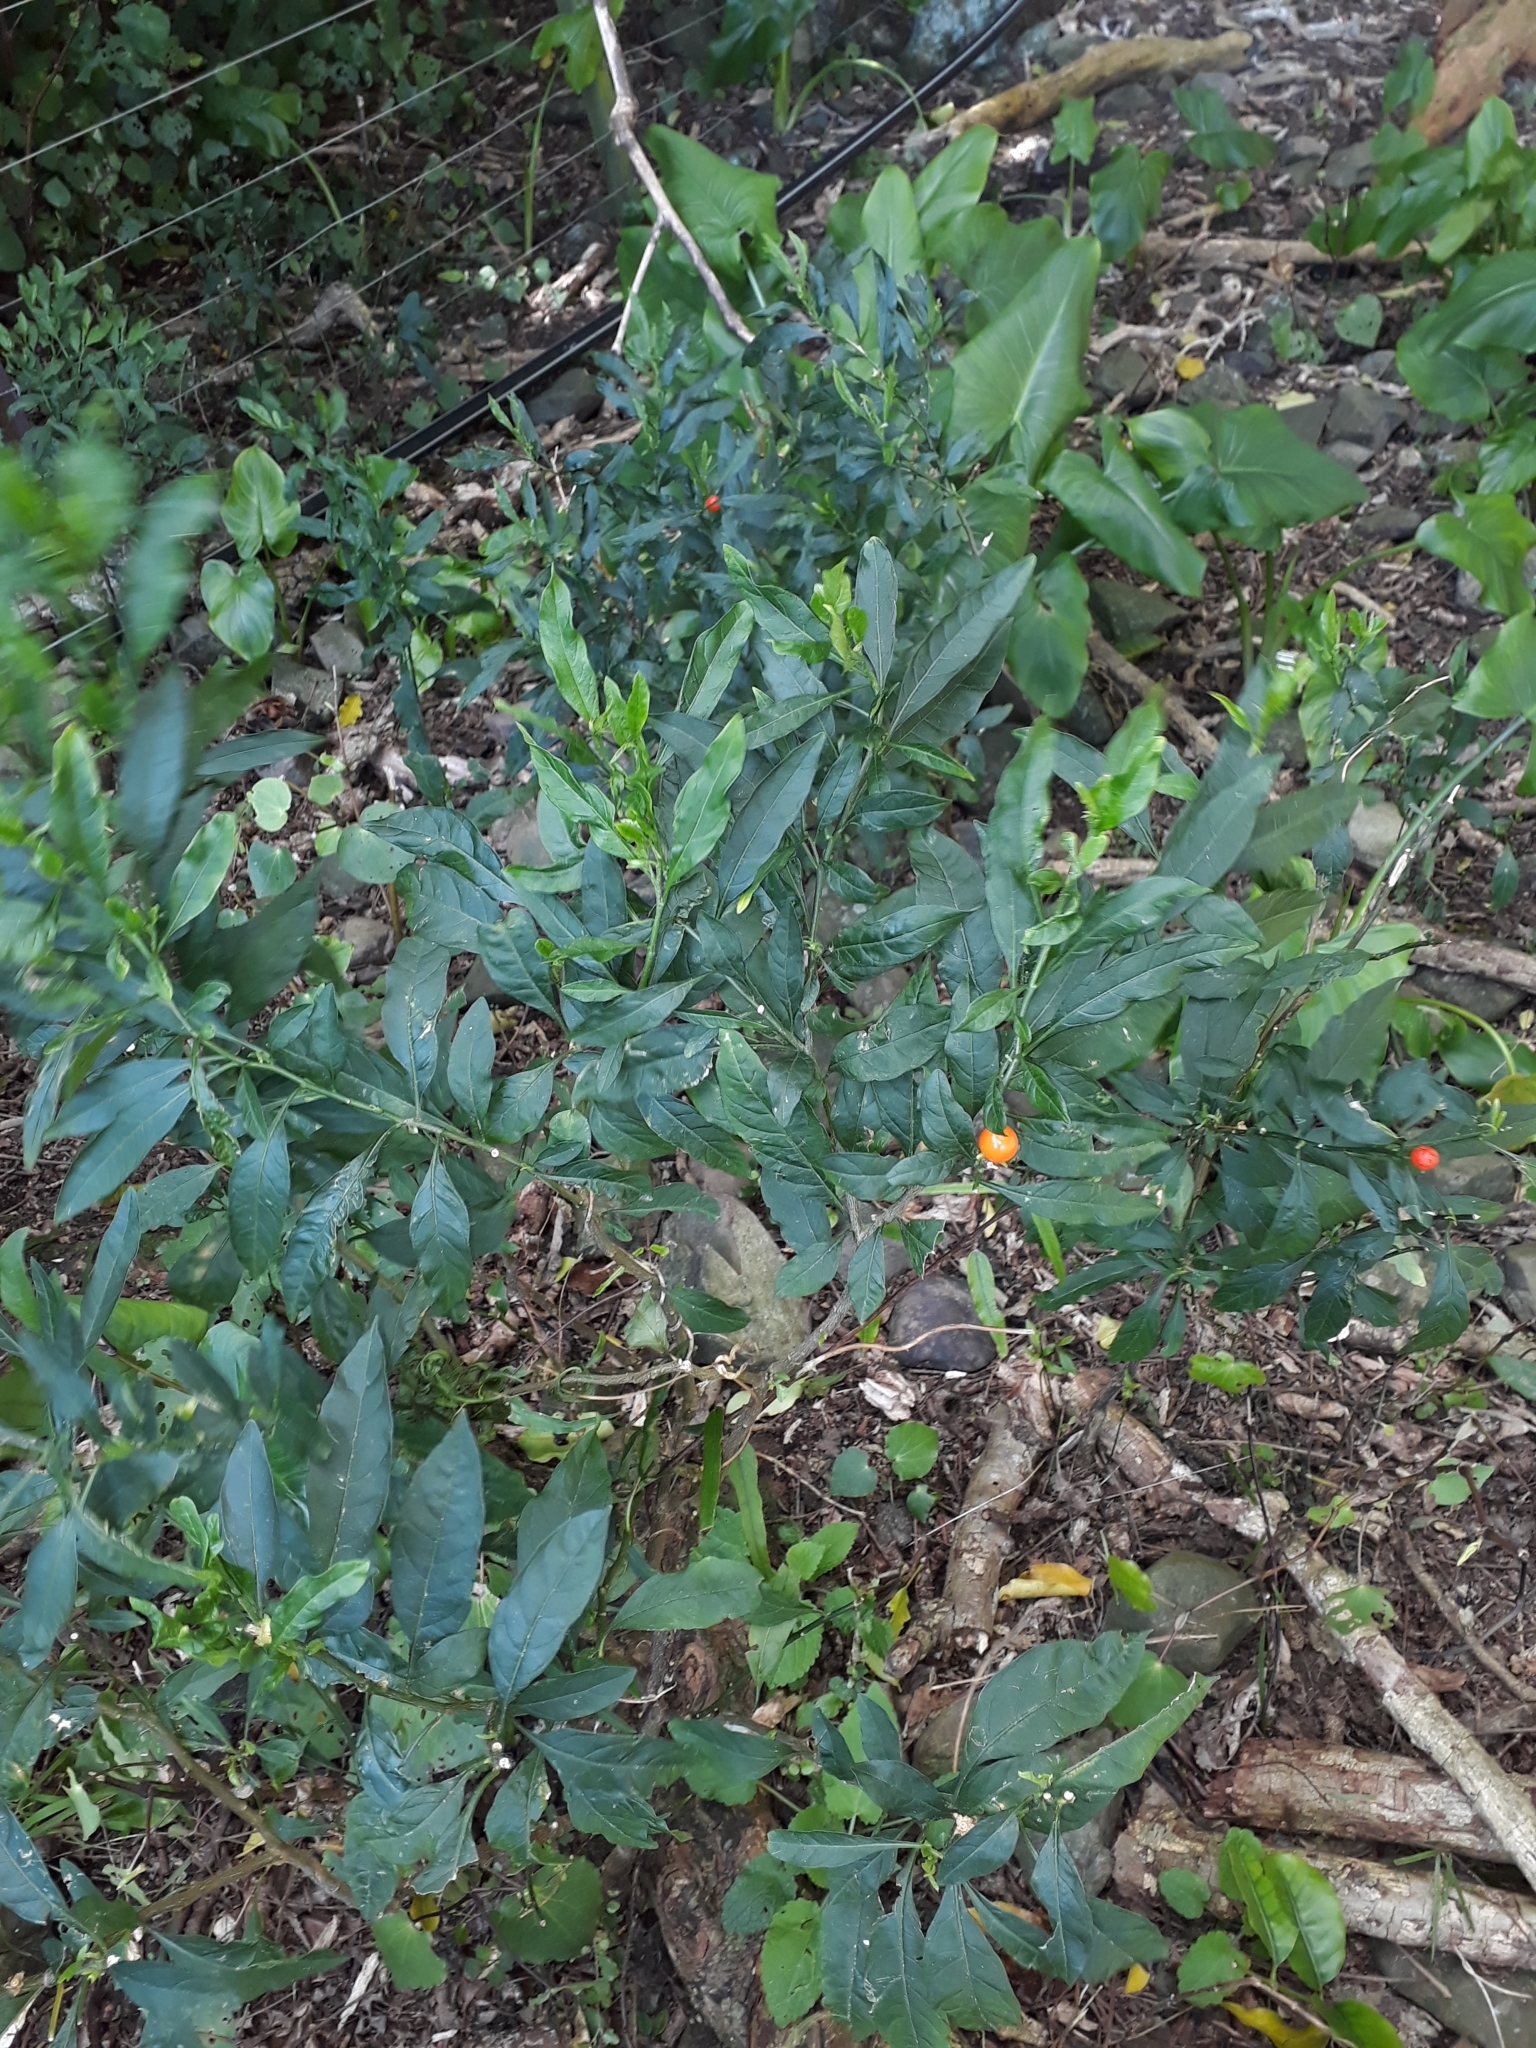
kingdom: Plantae
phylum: Tracheophyta
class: Magnoliopsida
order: Solanales
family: Solanaceae
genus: Solanum
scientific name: Solanum pseudocapsicum
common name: Jerusalem cherry
